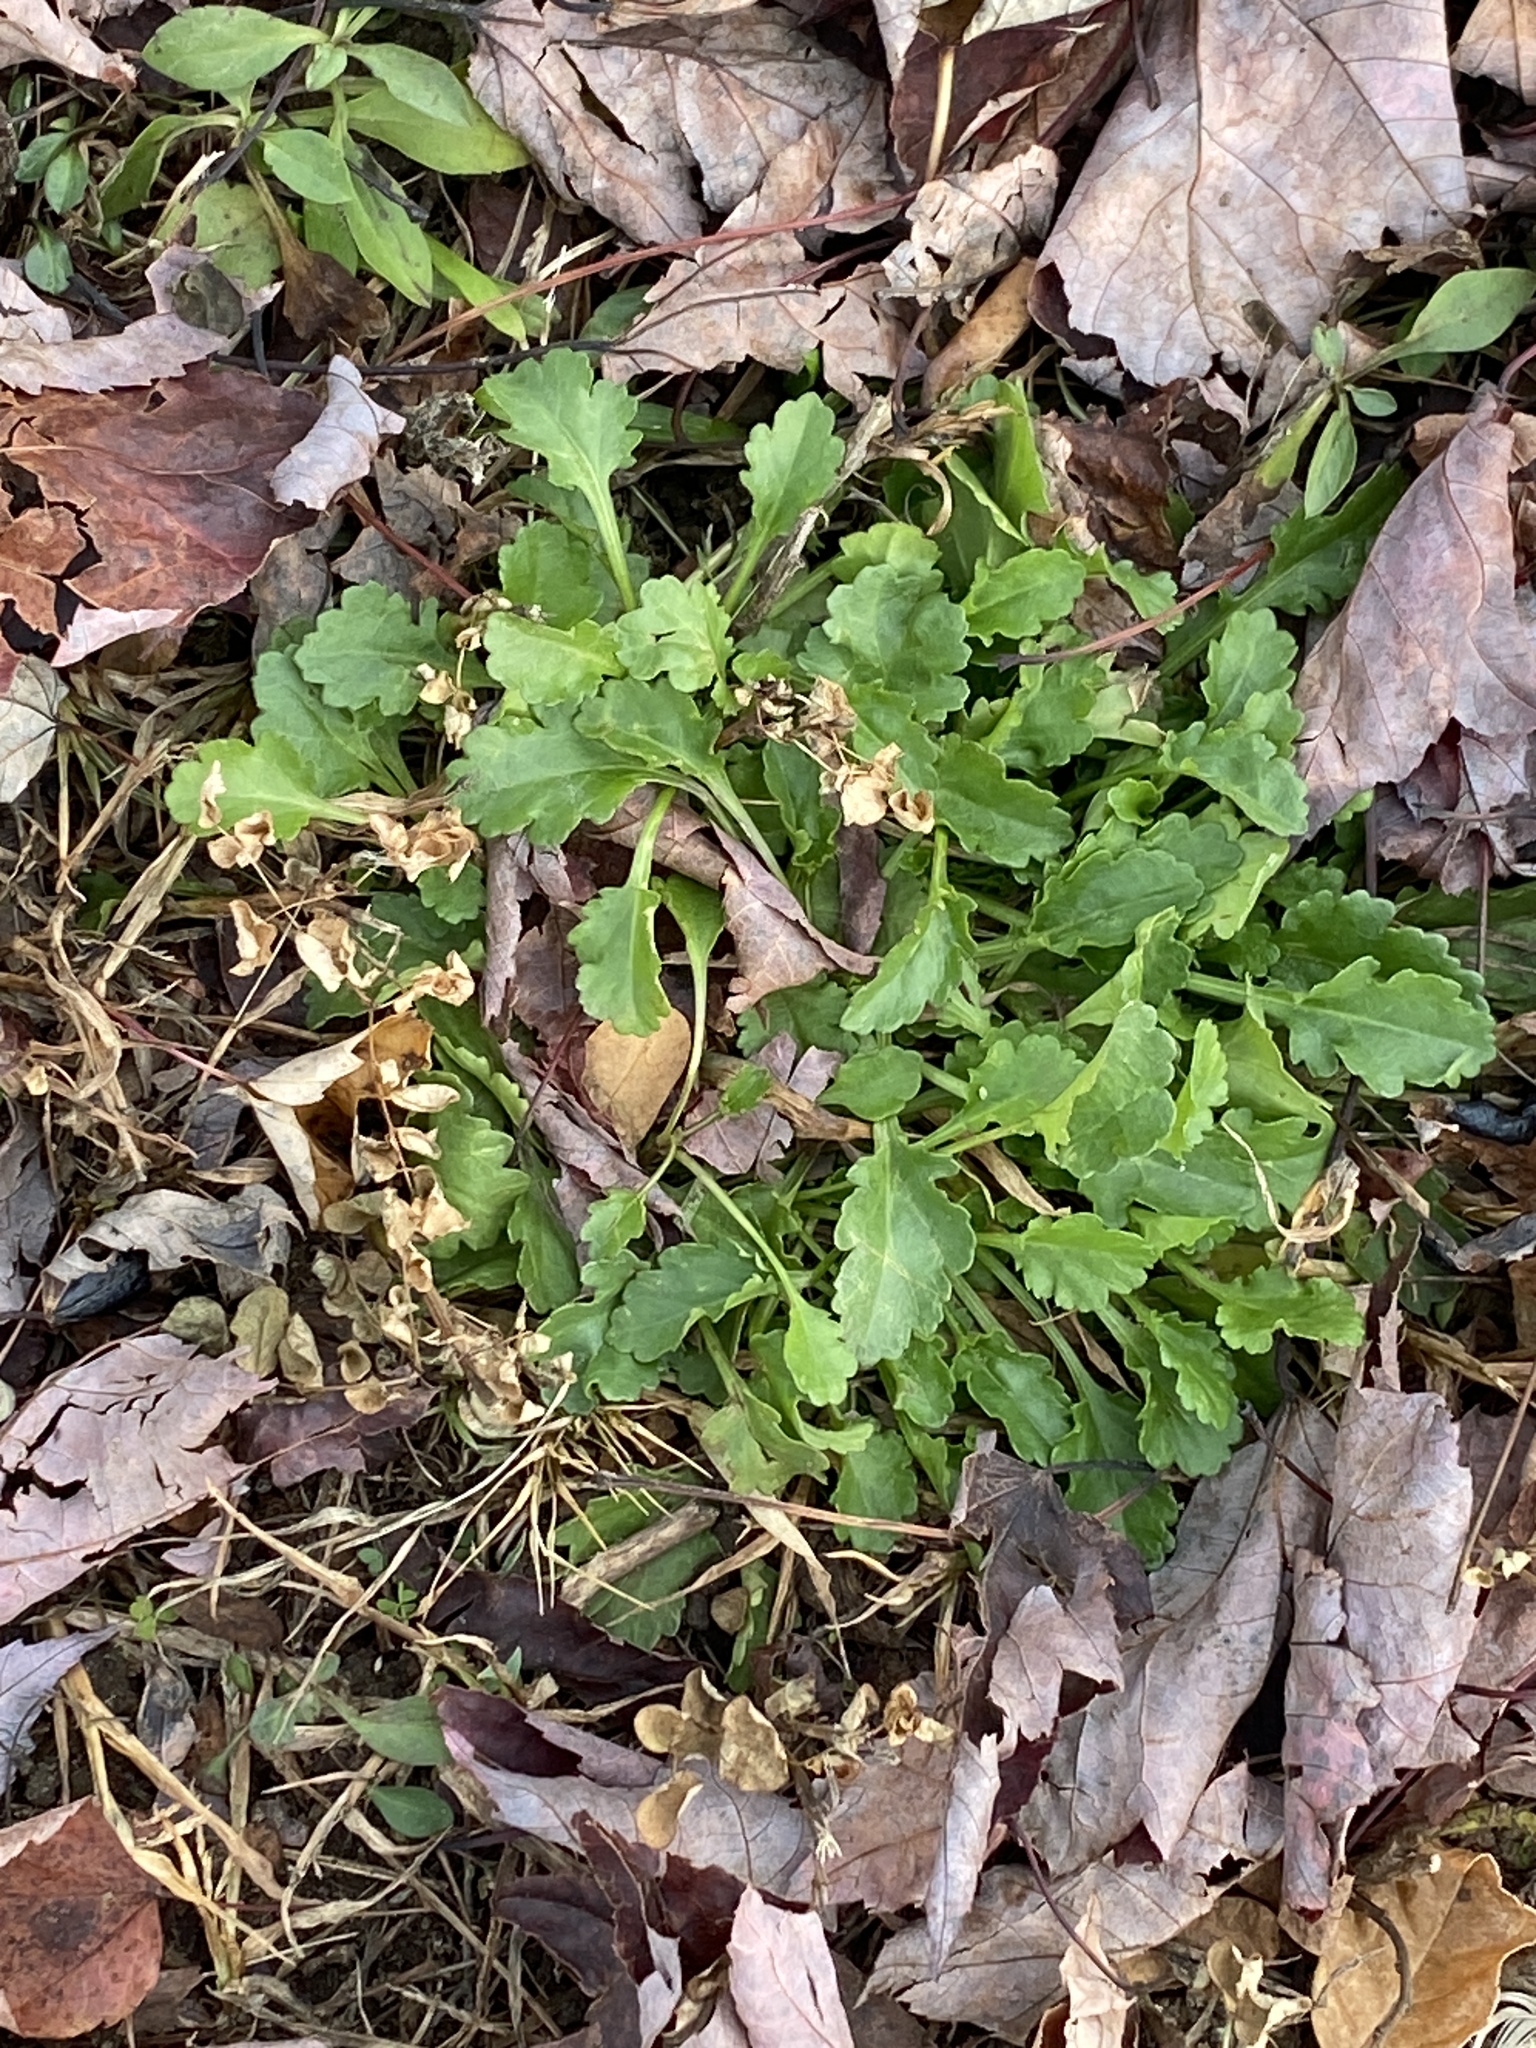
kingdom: Plantae
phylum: Tracheophyta
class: Magnoliopsida
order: Asterales
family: Asteraceae
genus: Leucanthemum
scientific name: Leucanthemum vulgare
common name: Oxeye daisy
